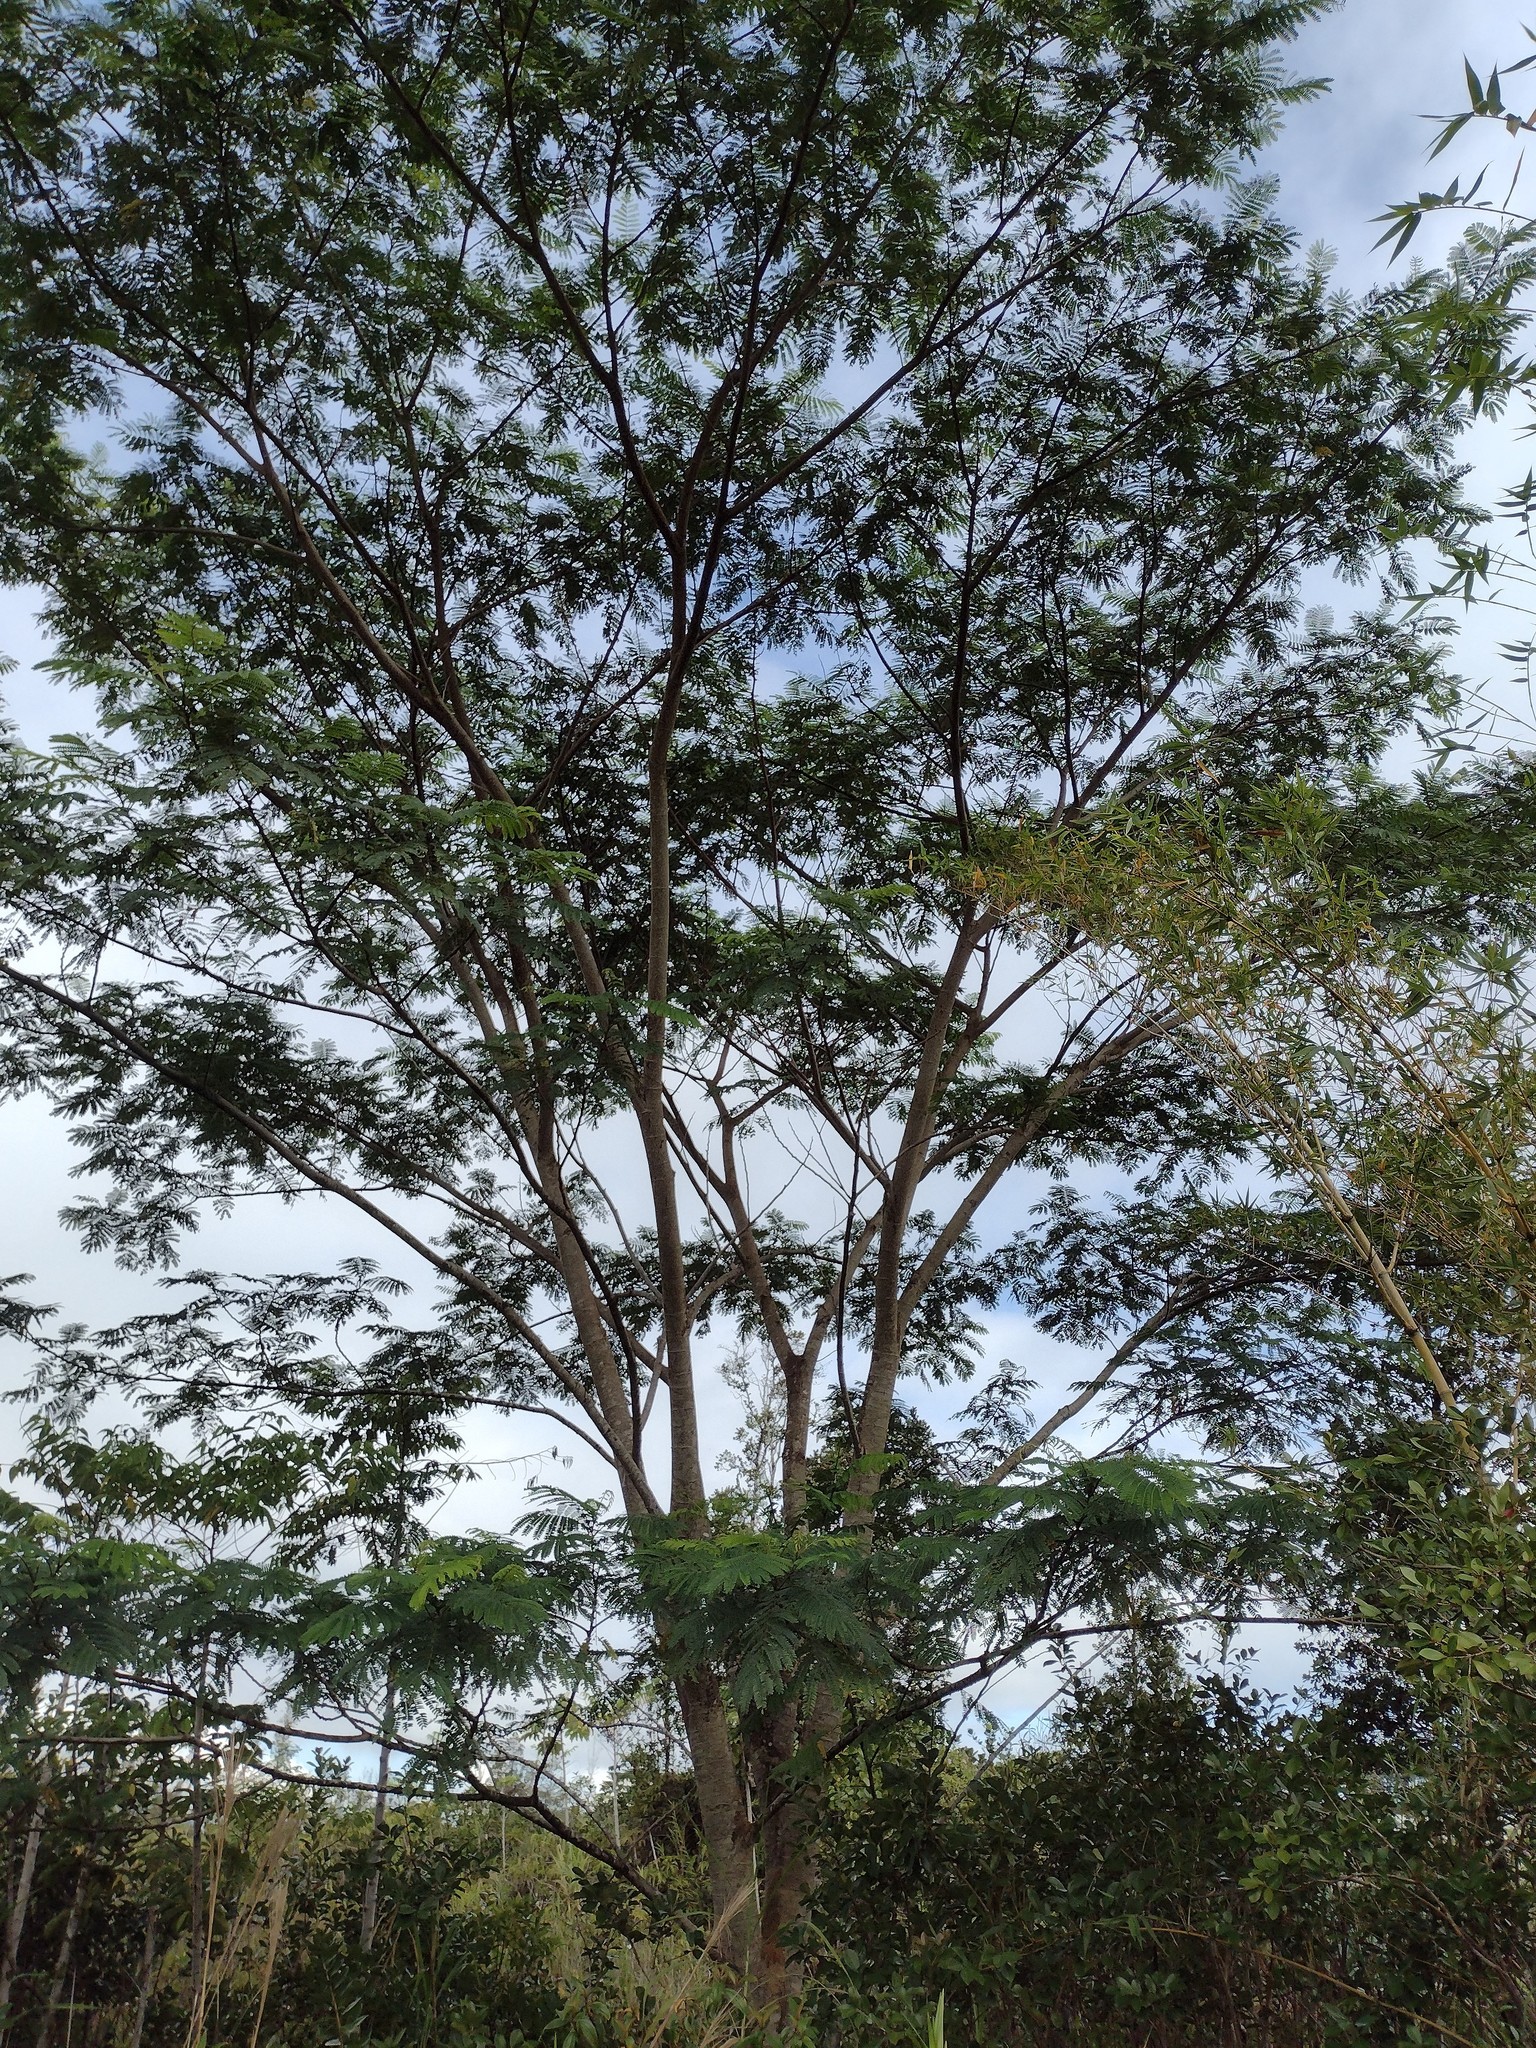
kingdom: Plantae
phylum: Tracheophyta
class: Magnoliopsida
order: Fabales
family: Fabaceae
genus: Falcataria
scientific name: Falcataria falcata
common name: Moluccan albizia
